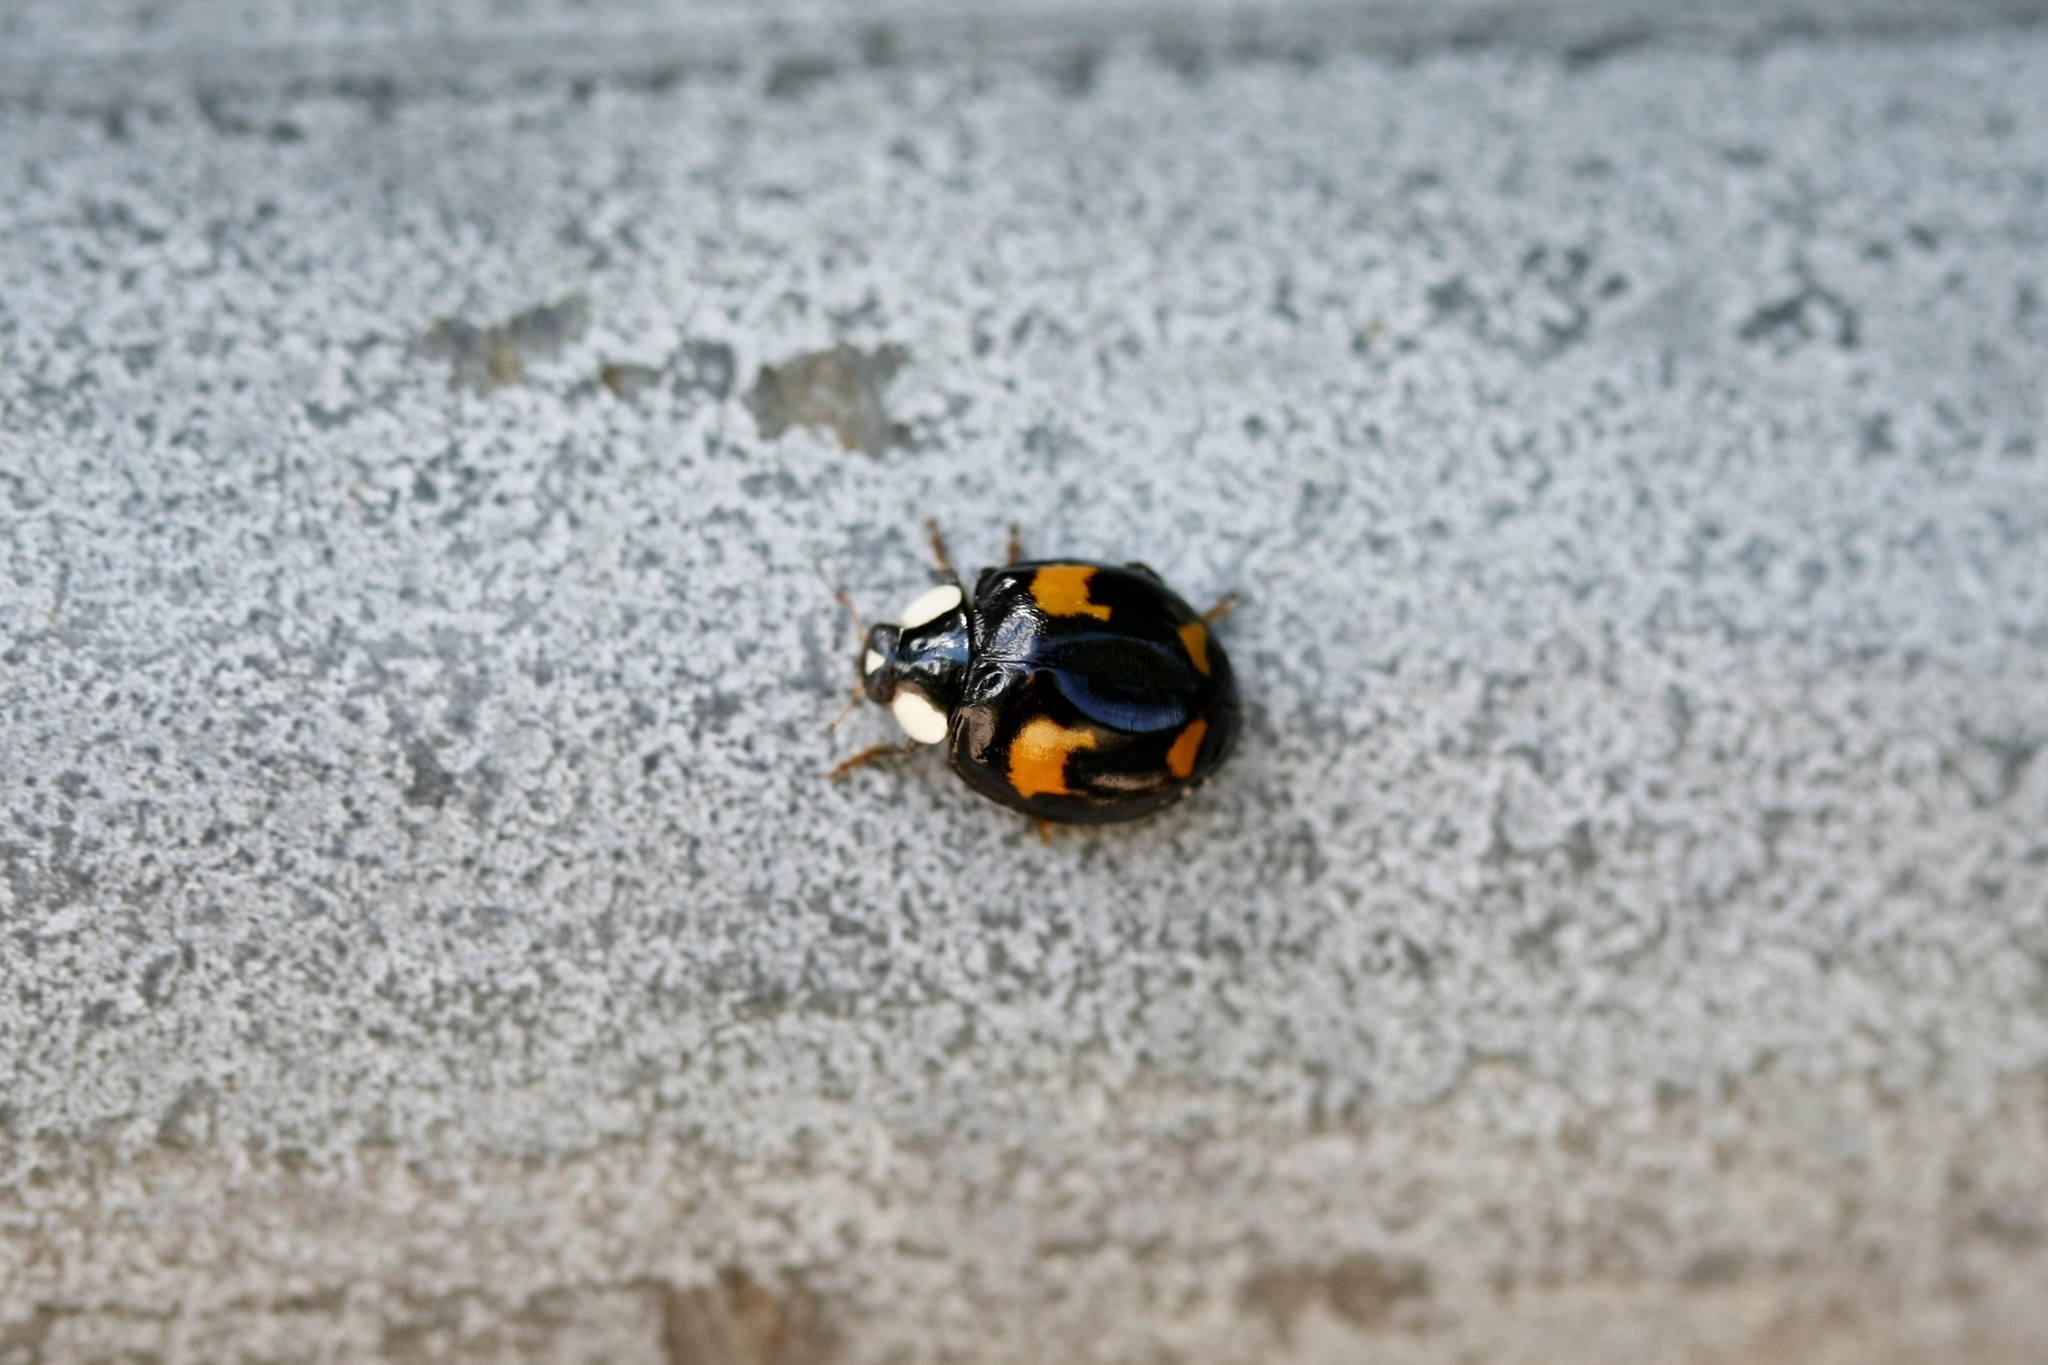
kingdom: Animalia
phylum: Arthropoda
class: Insecta
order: Coleoptera
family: Coccinellidae
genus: Harmonia
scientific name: Harmonia axyridis
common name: Harlequin ladybird
